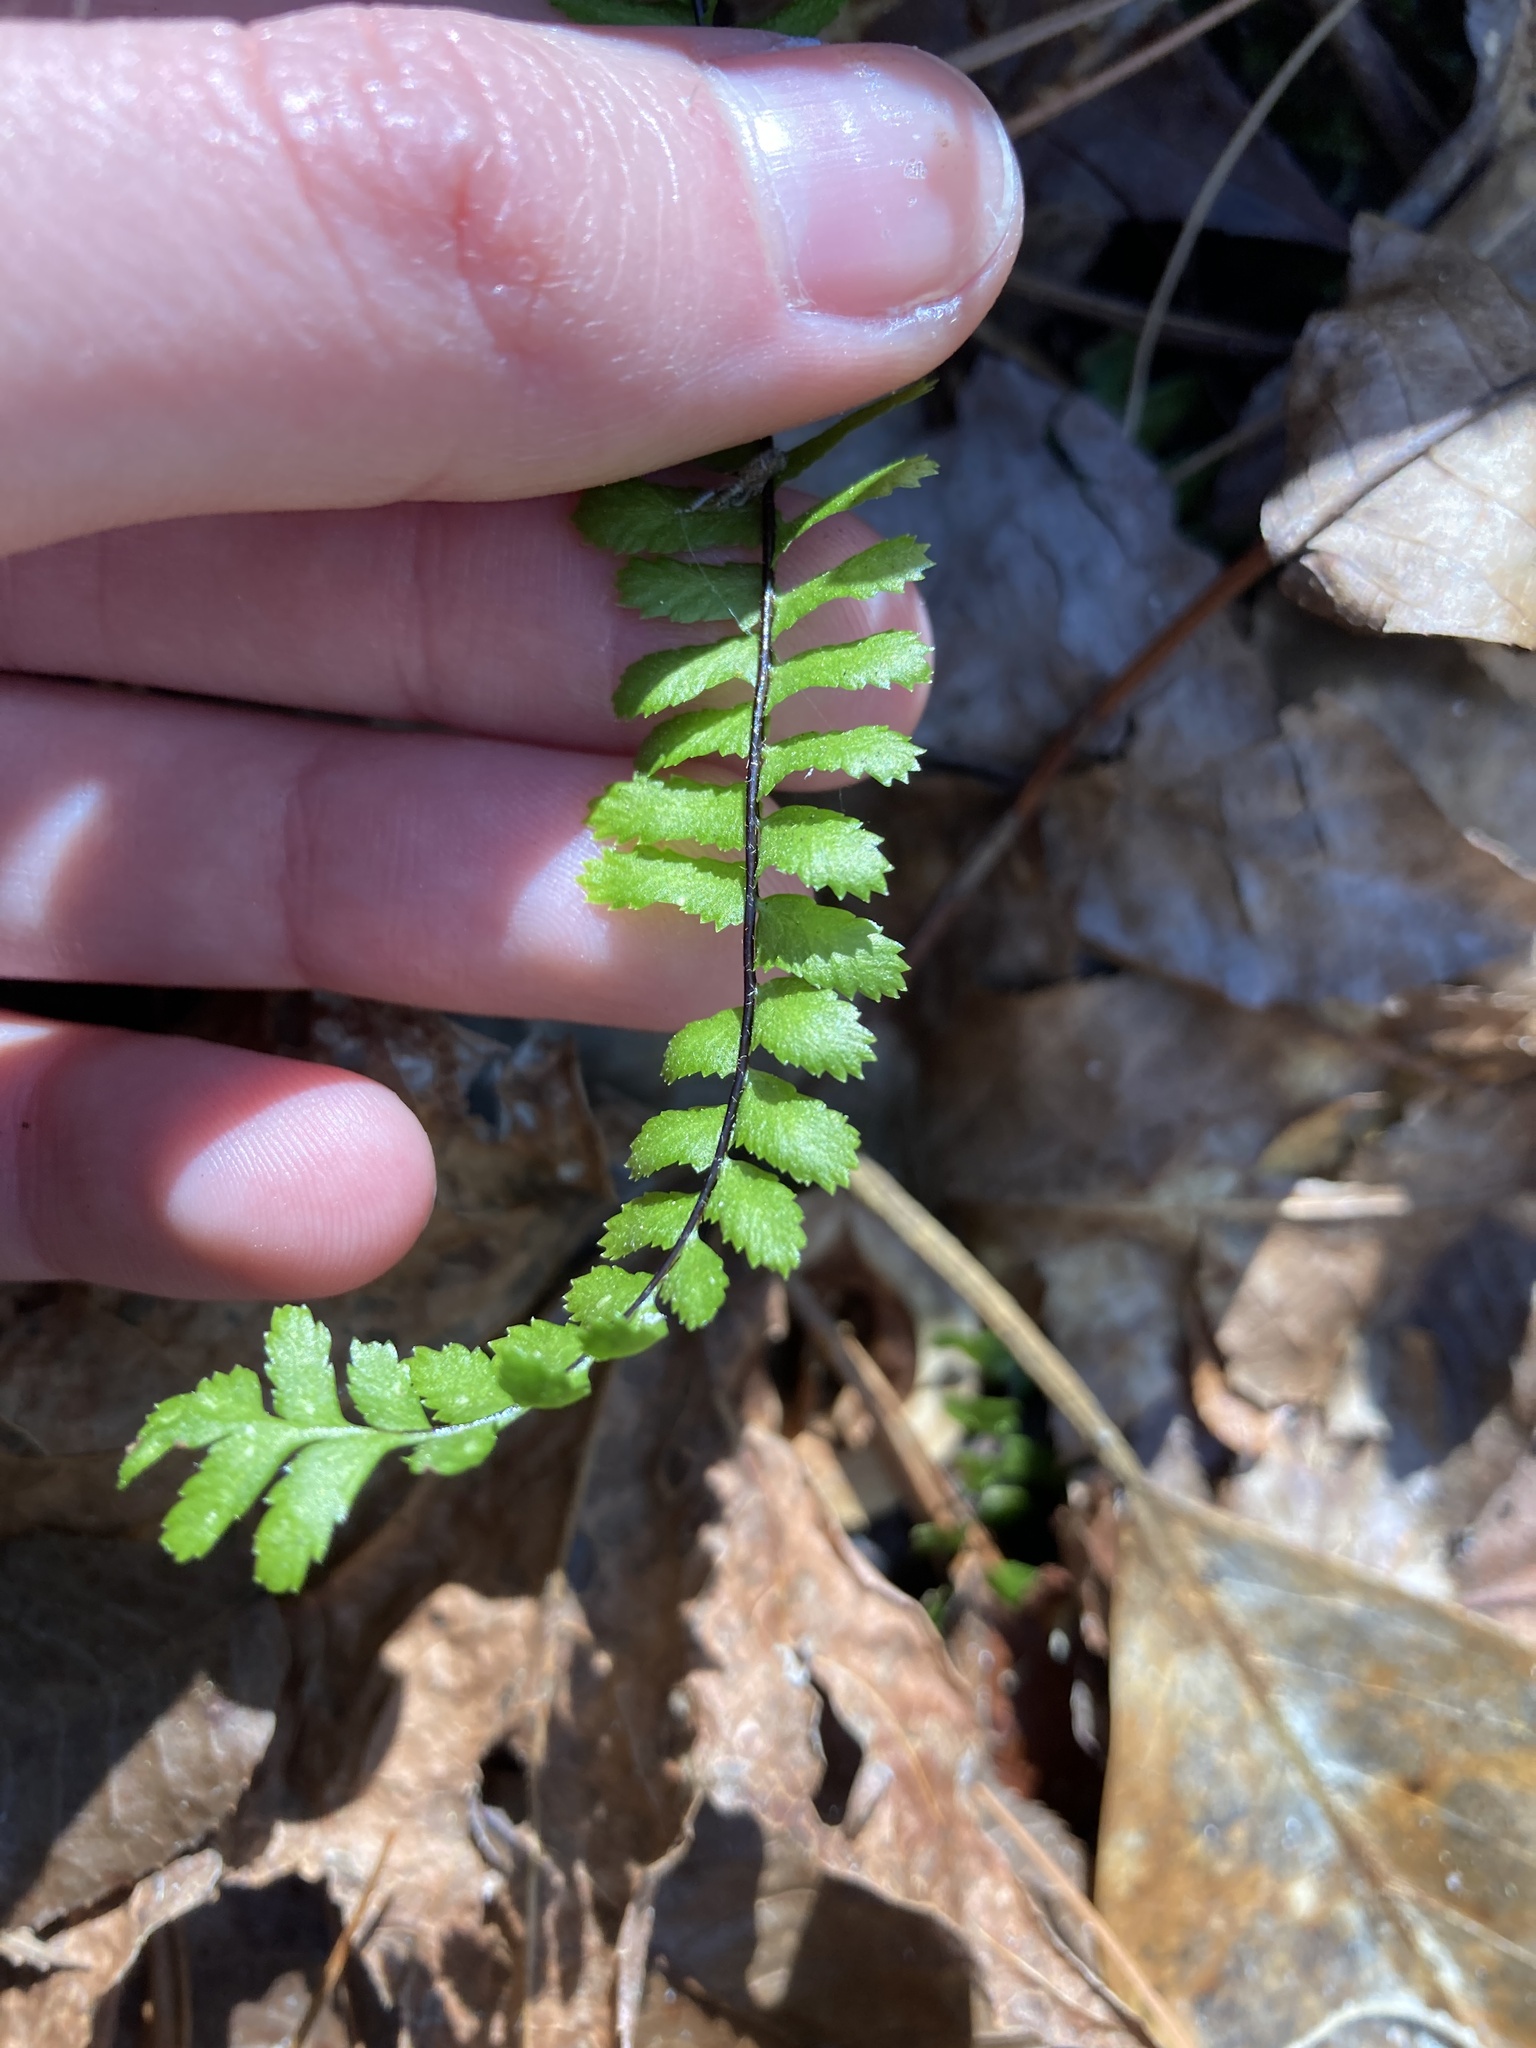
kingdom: Plantae
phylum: Tracheophyta
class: Polypodiopsida
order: Polypodiales
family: Aspleniaceae
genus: Asplenium
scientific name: Asplenium platyneuron
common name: Ebony spleenwort
